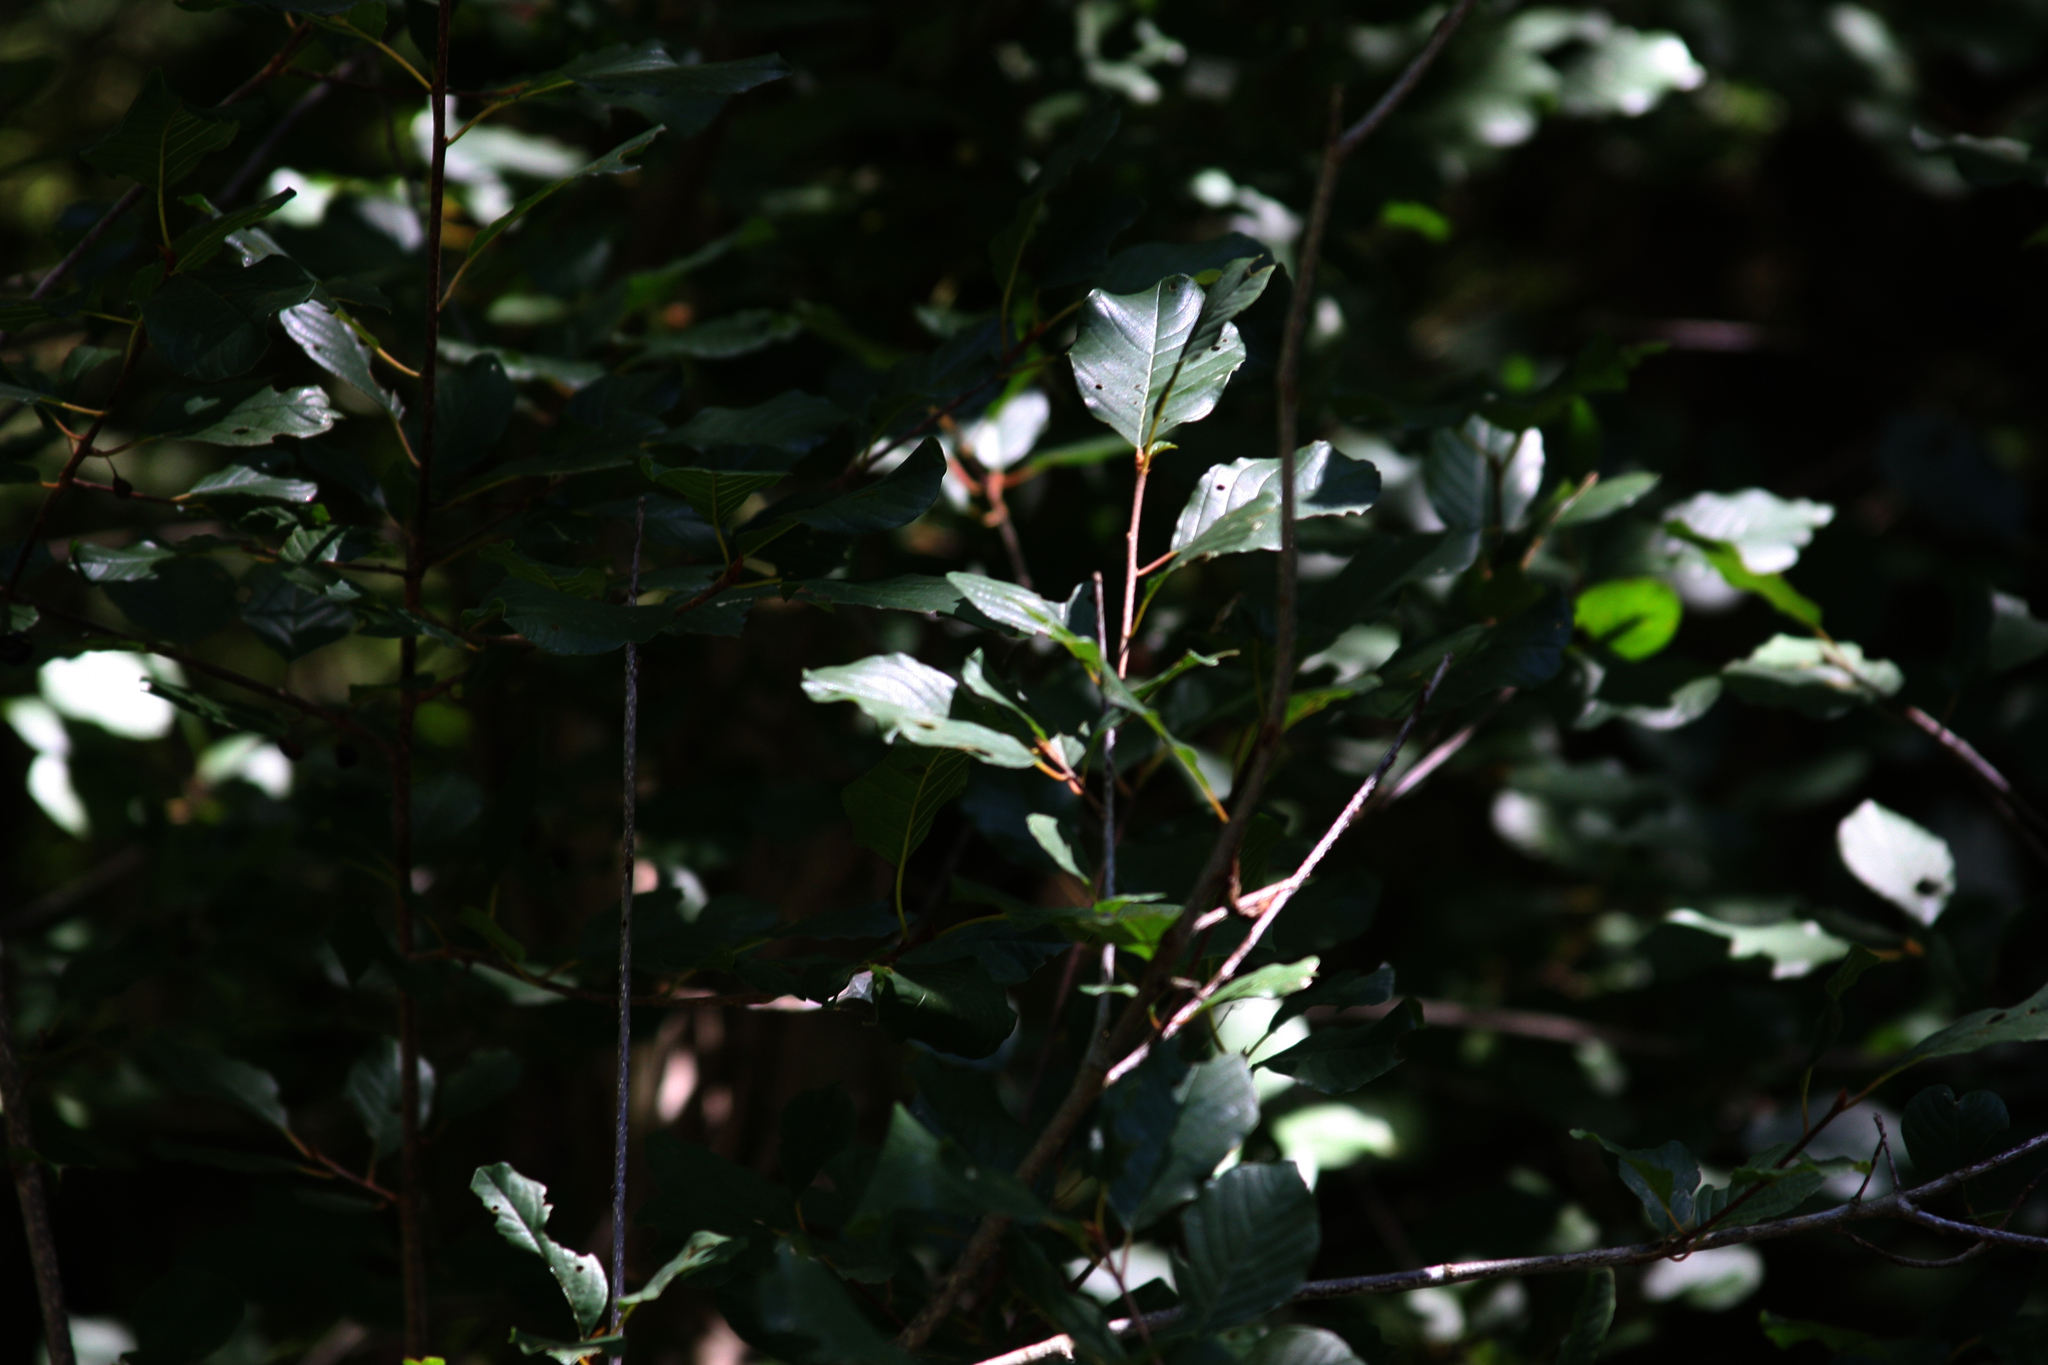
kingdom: Plantae
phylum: Tracheophyta
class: Magnoliopsida
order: Rosales
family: Rhamnaceae
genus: Frangula
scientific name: Frangula alnus
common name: Alder buckthorn
